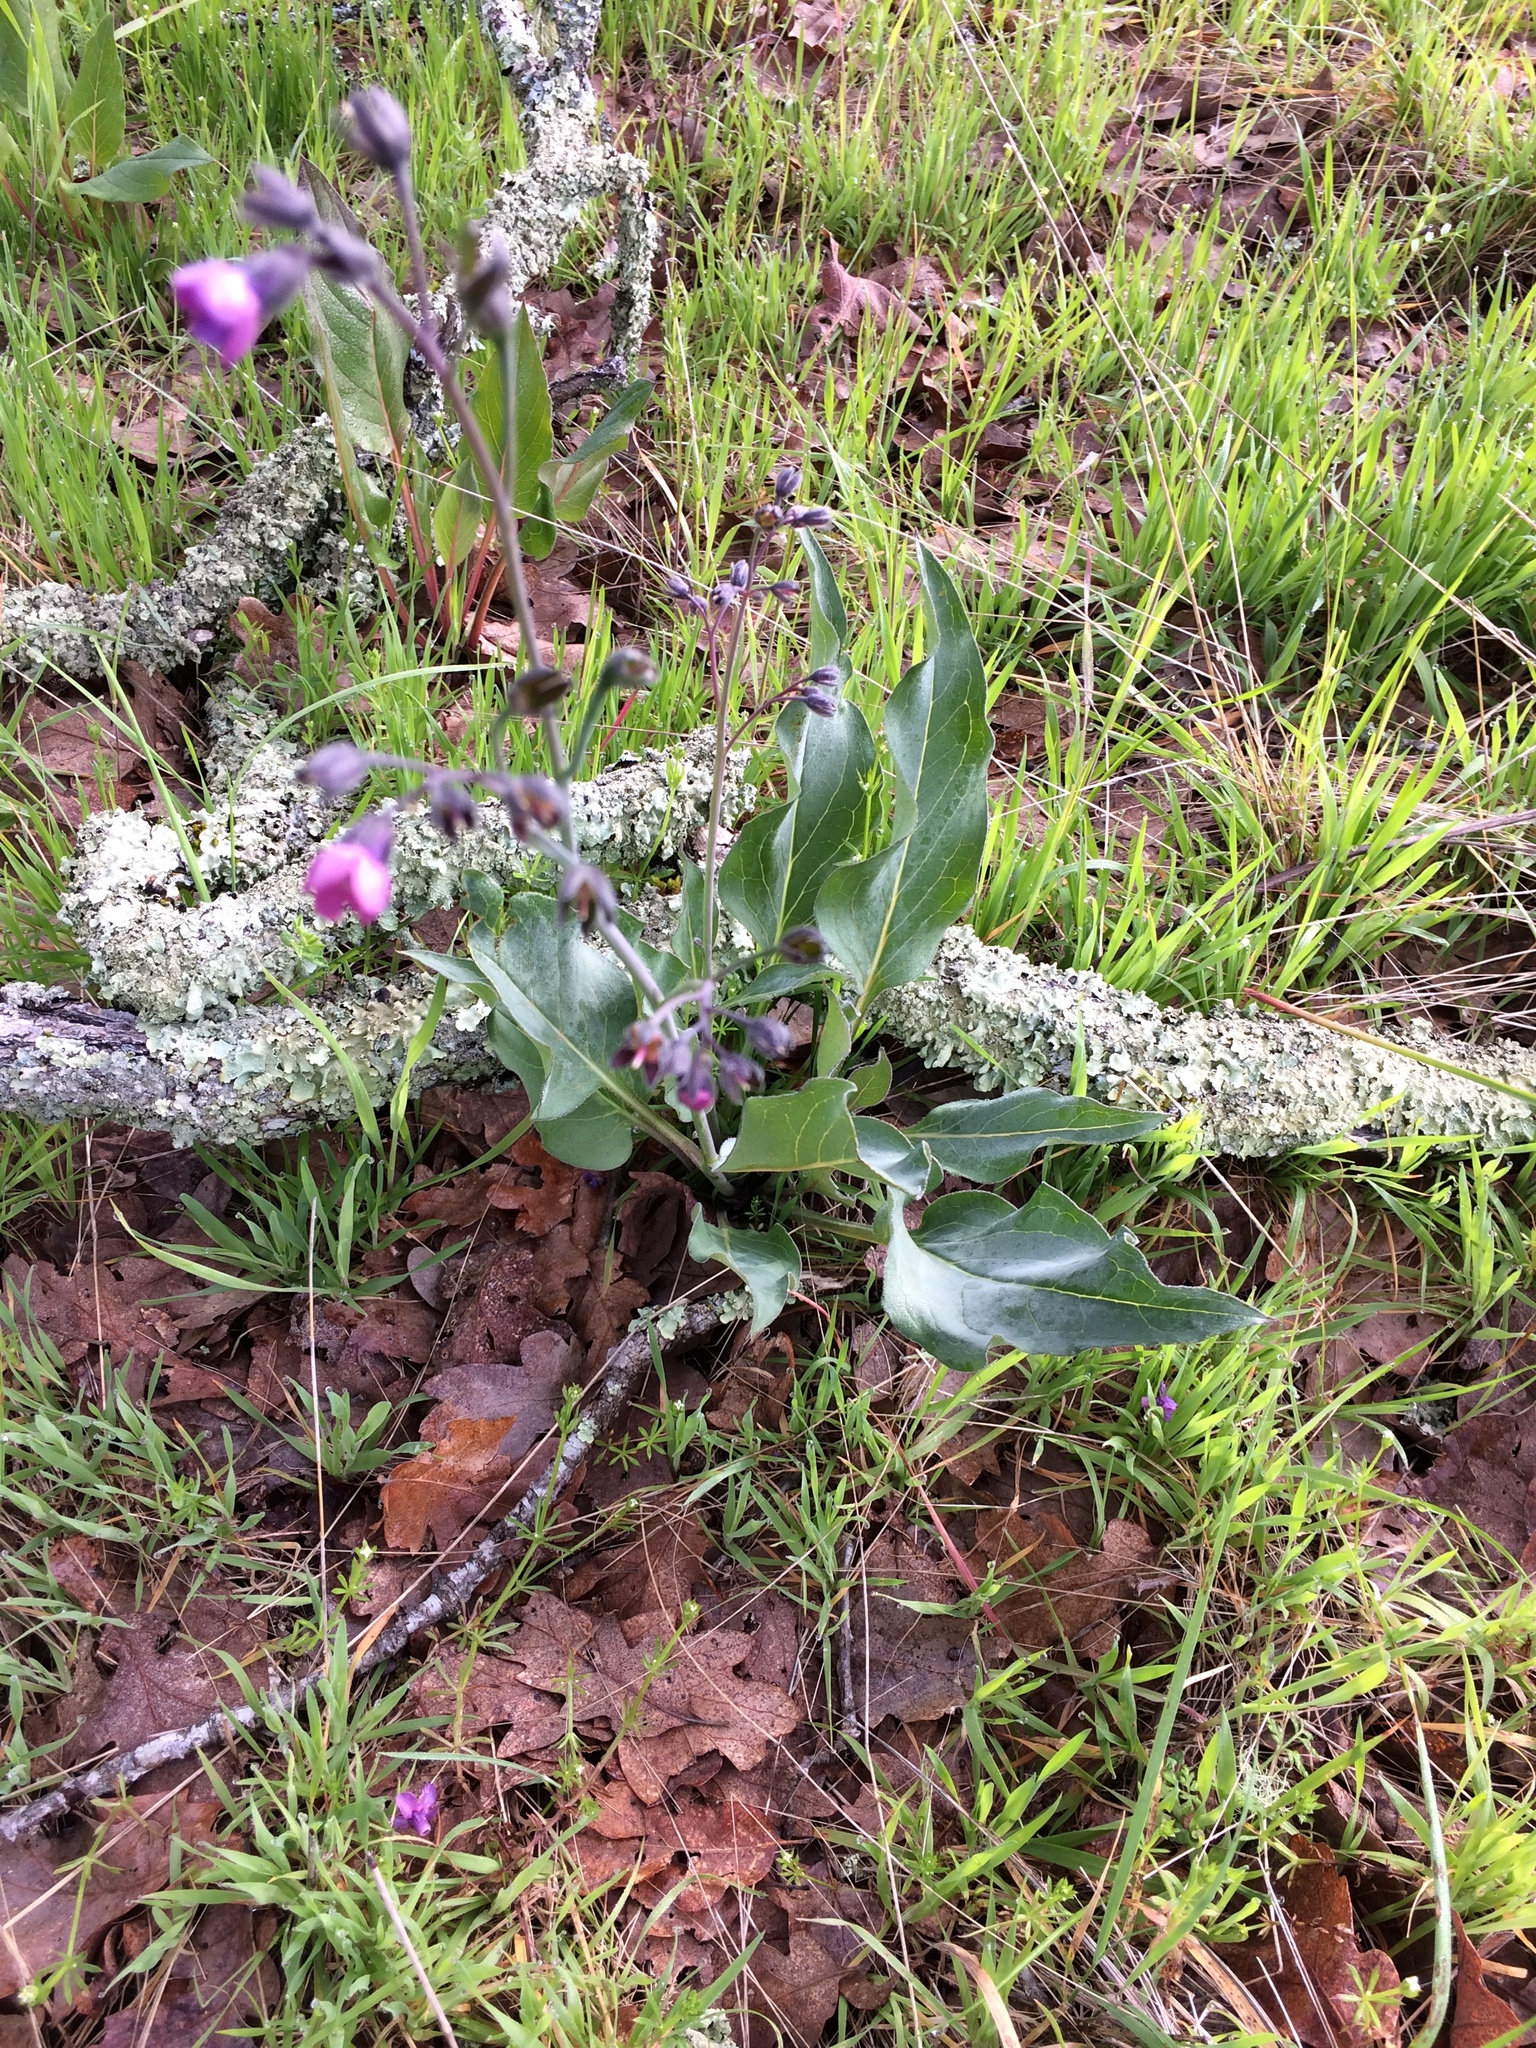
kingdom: Plantae
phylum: Tracheophyta
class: Magnoliopsida
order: Boraginales
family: Boraginaceae
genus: Adelinia
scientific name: Adelinia grande
